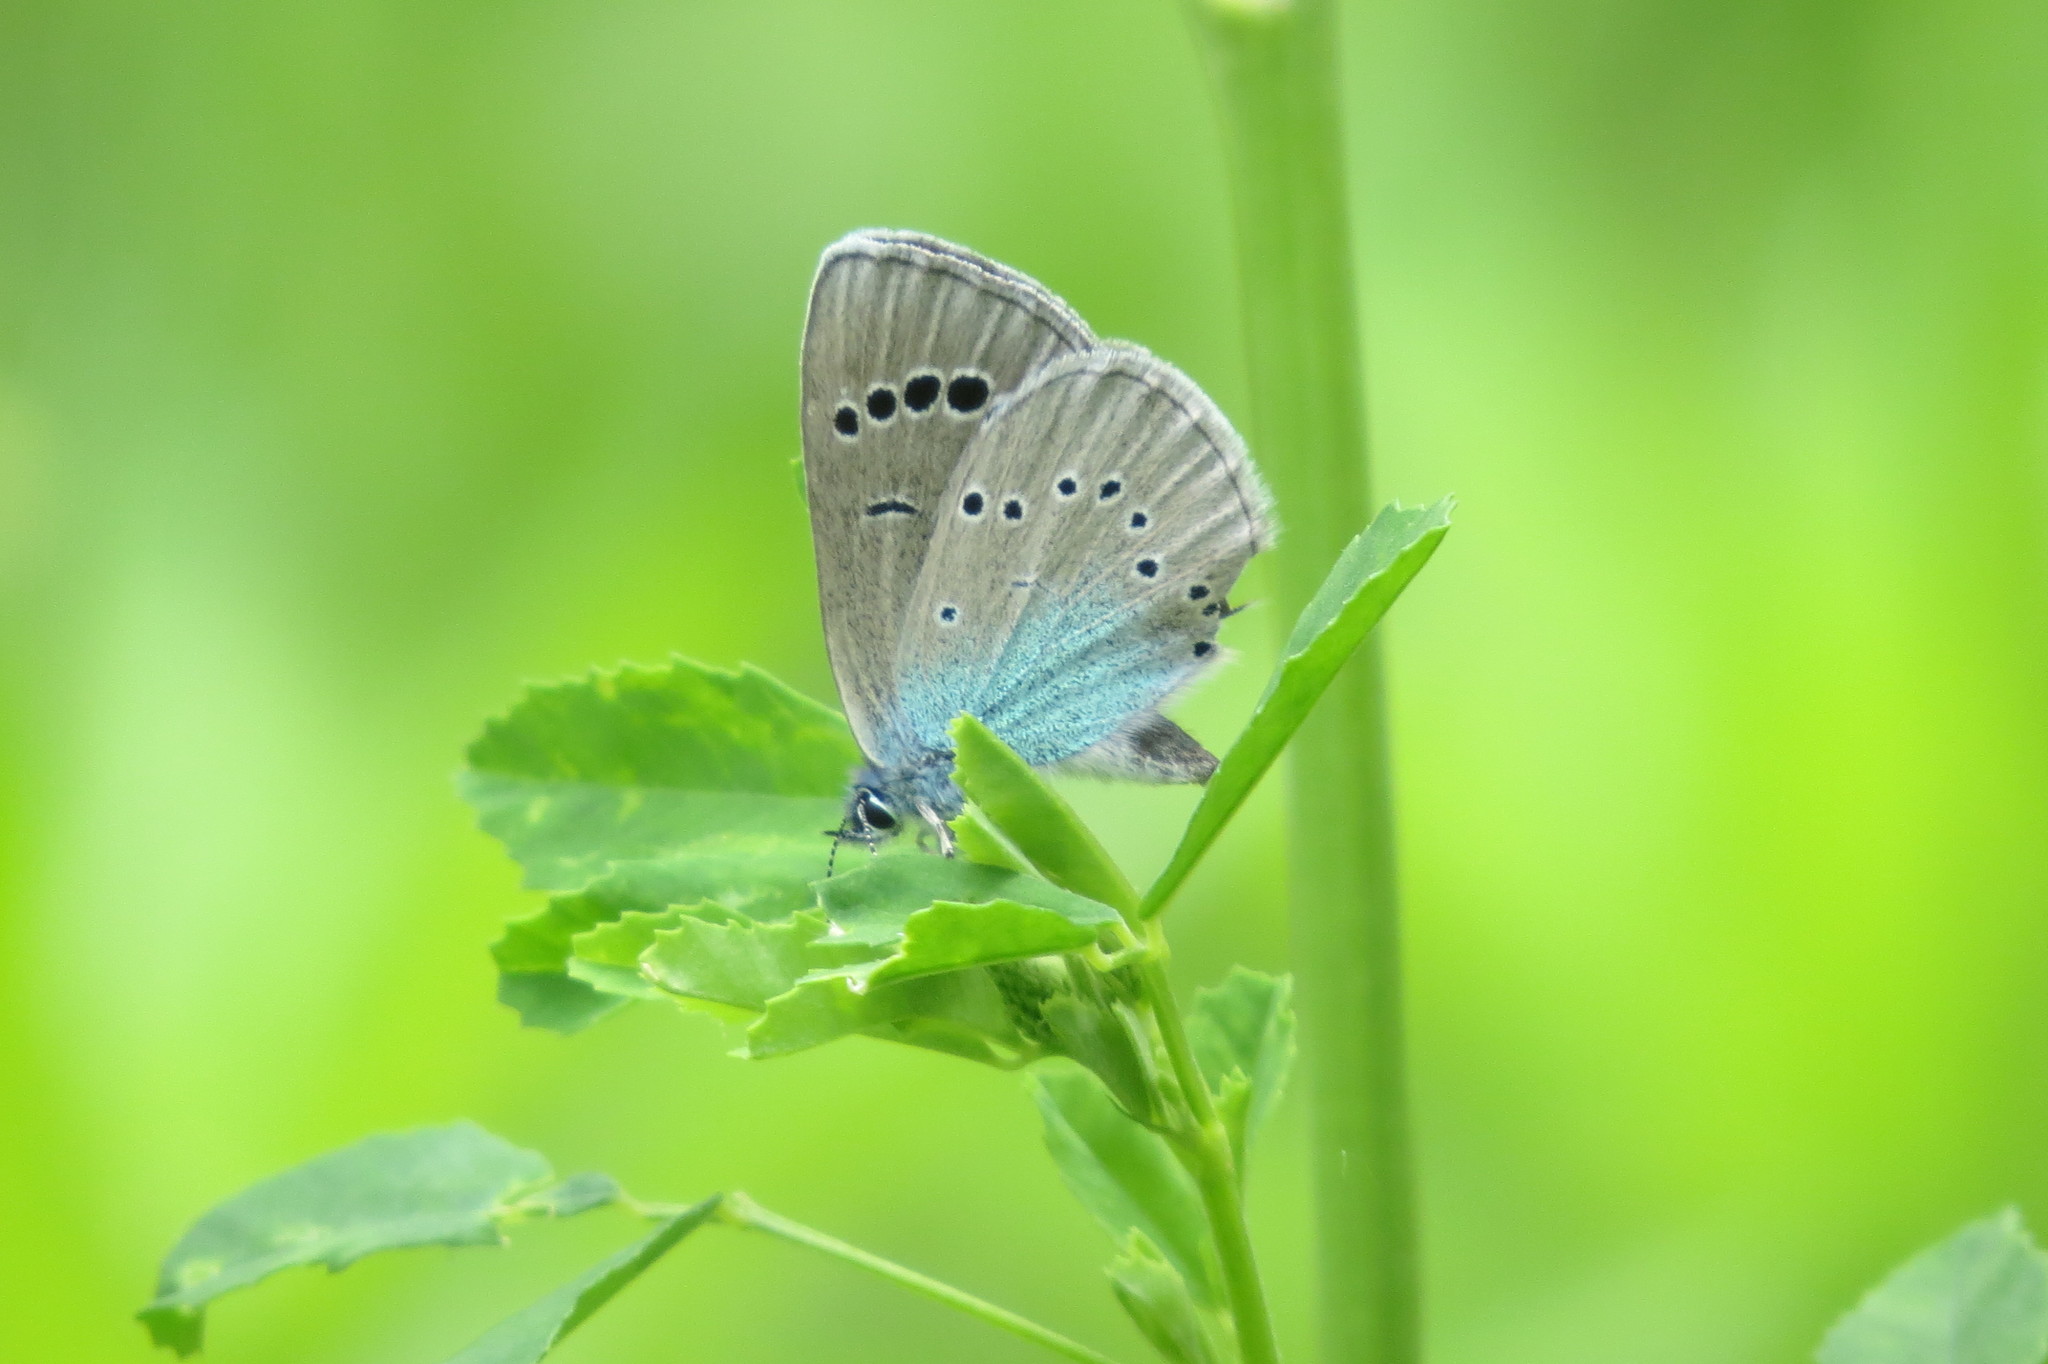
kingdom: Animalia
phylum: Arthropoda
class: Insecta
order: Lepidoptera
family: Lycaenidae
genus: Glaucopsyche
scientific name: Glaucopsyche alexis
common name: Green-underside blue
